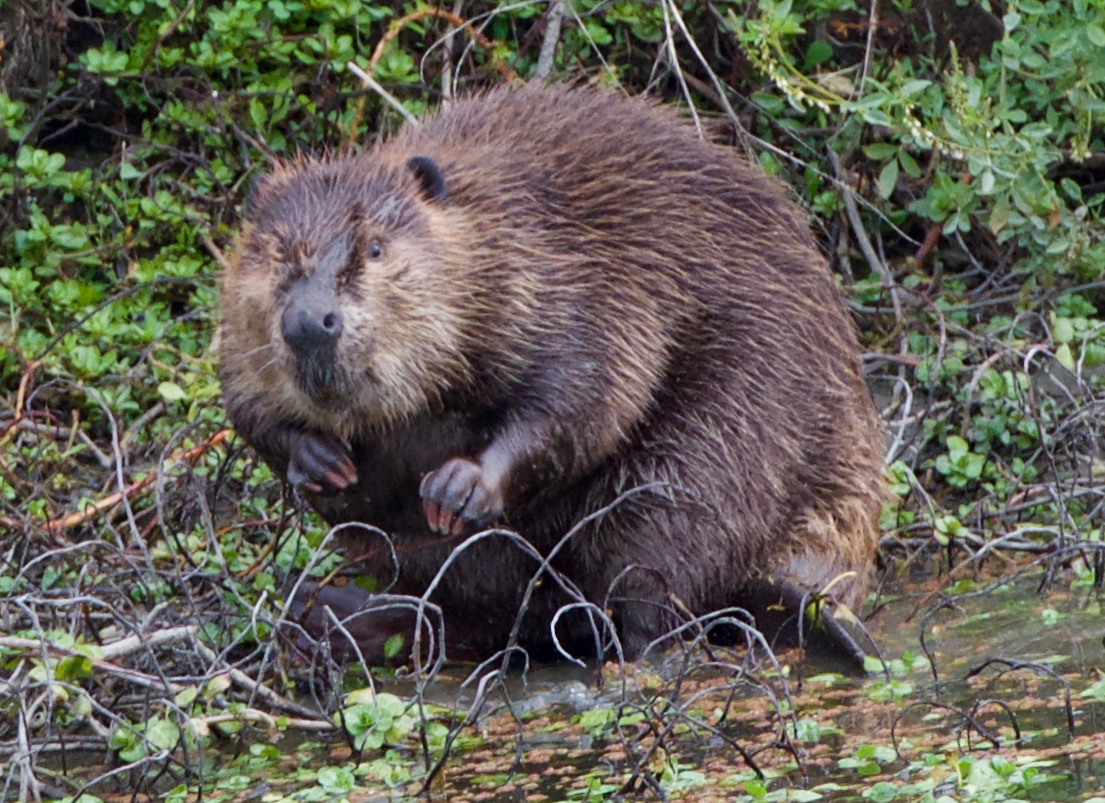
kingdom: Animalia
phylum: Chordata
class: Mammalia
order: Rodentia
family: Castoridae
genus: Castor
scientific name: Castor canadensis
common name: American beaver
